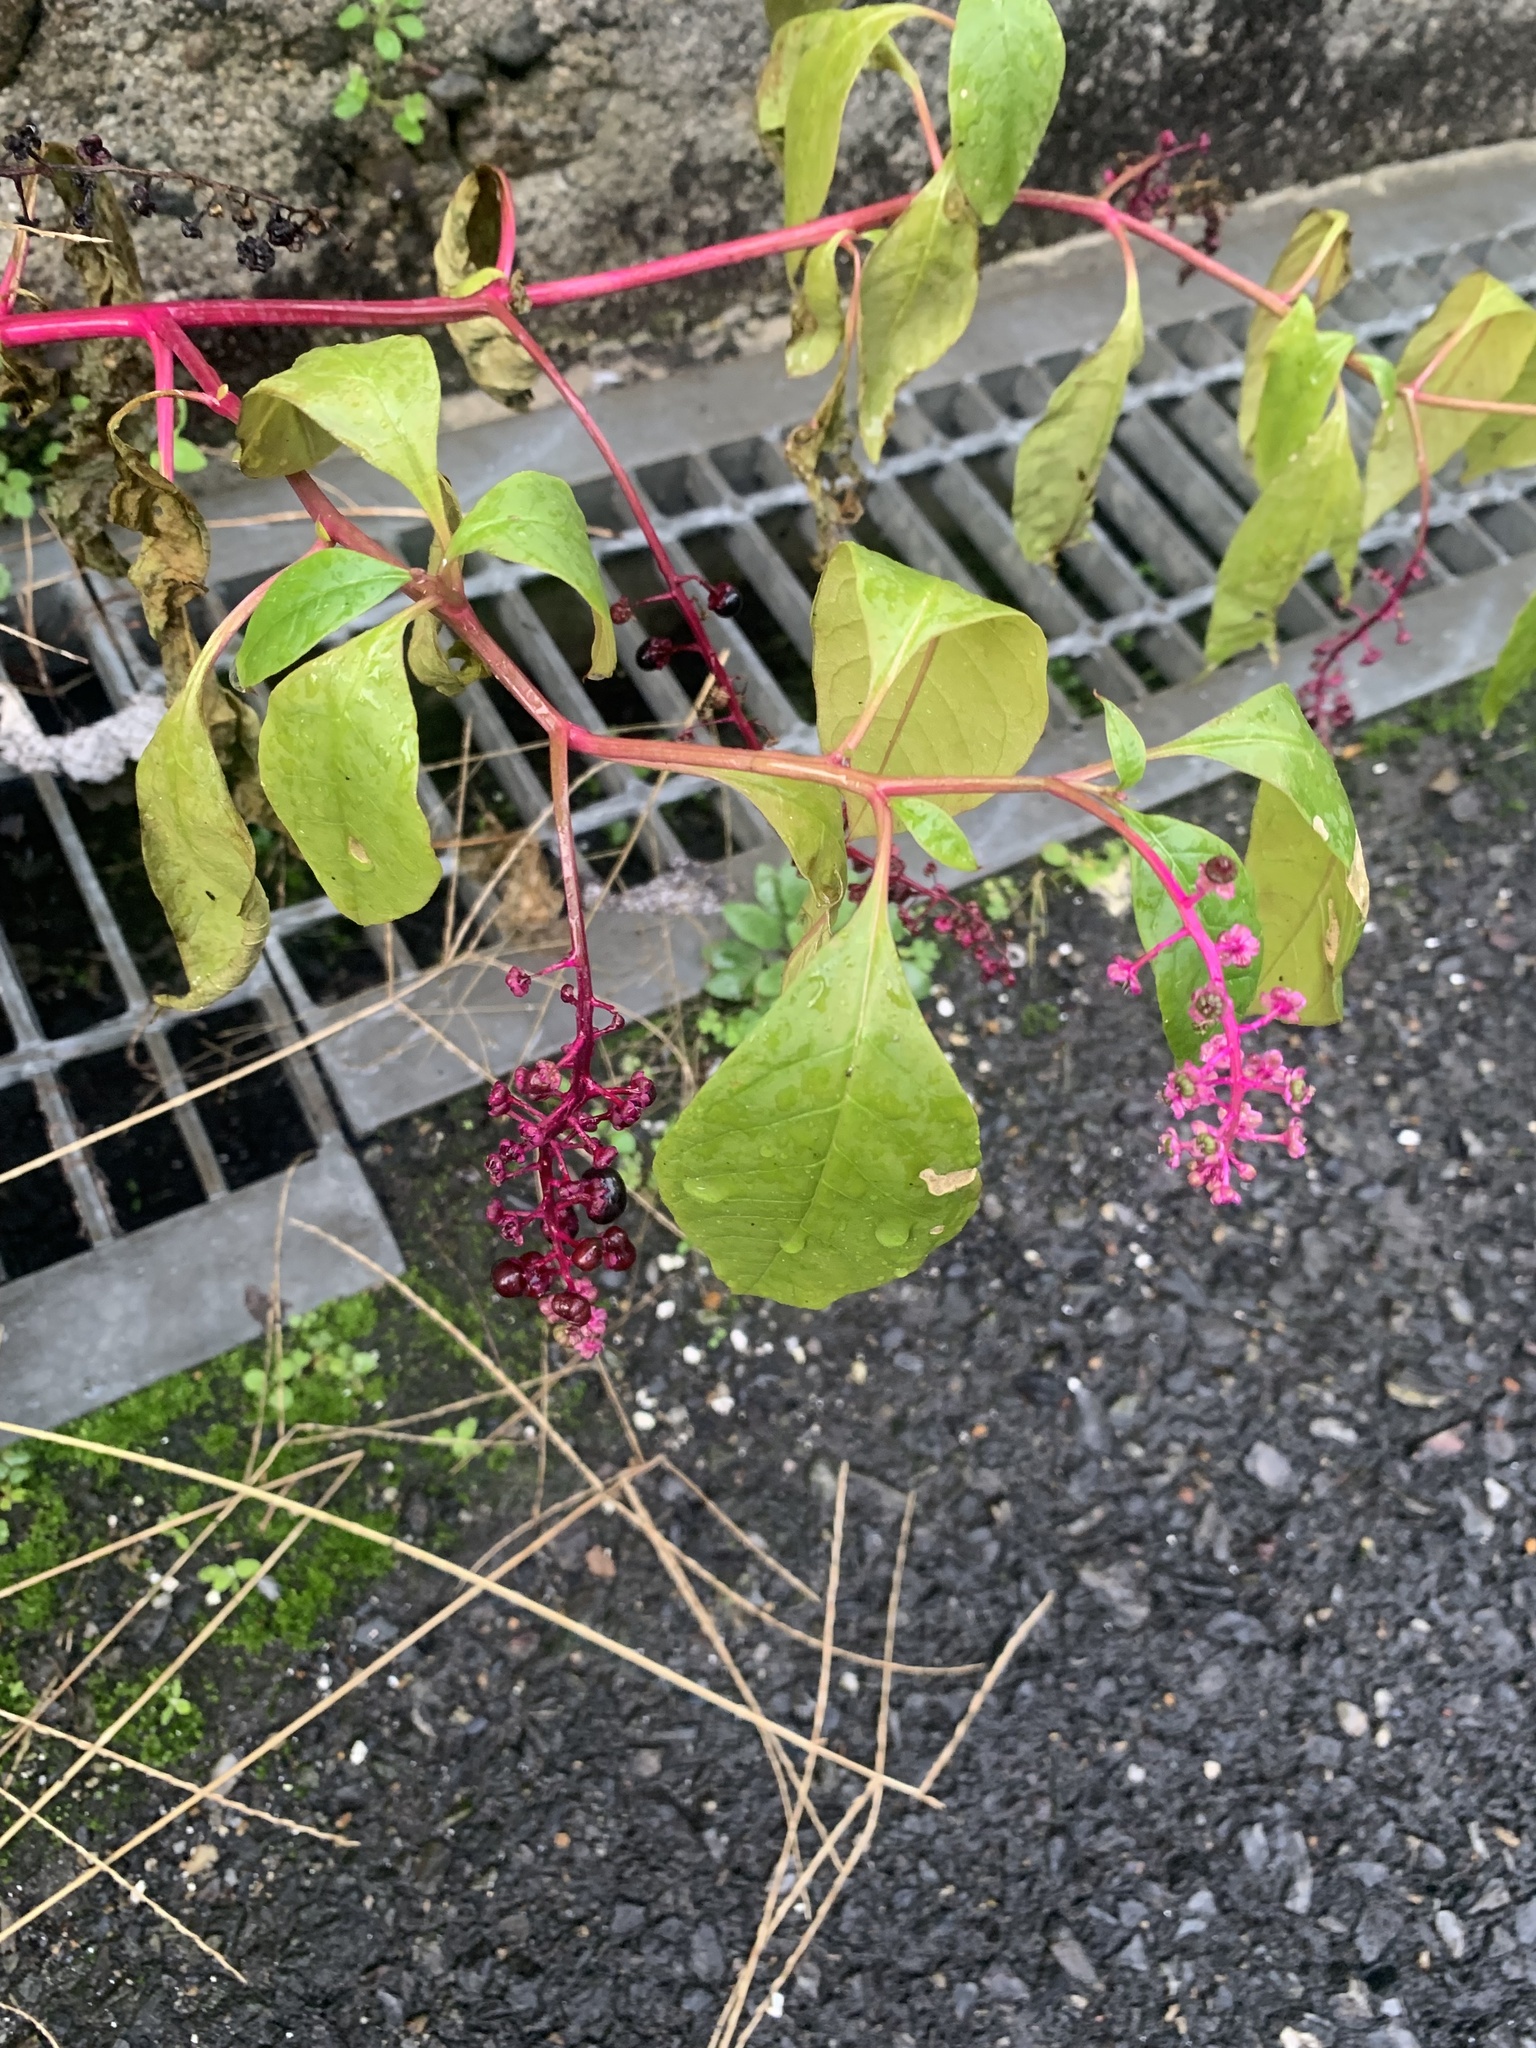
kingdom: Plantae
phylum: Tracheophyta
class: Magnoliopsida
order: Caryophyllales
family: Phytolaccaceae
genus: Phytolacca
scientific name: Phytolacca americana
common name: American pokeweed
